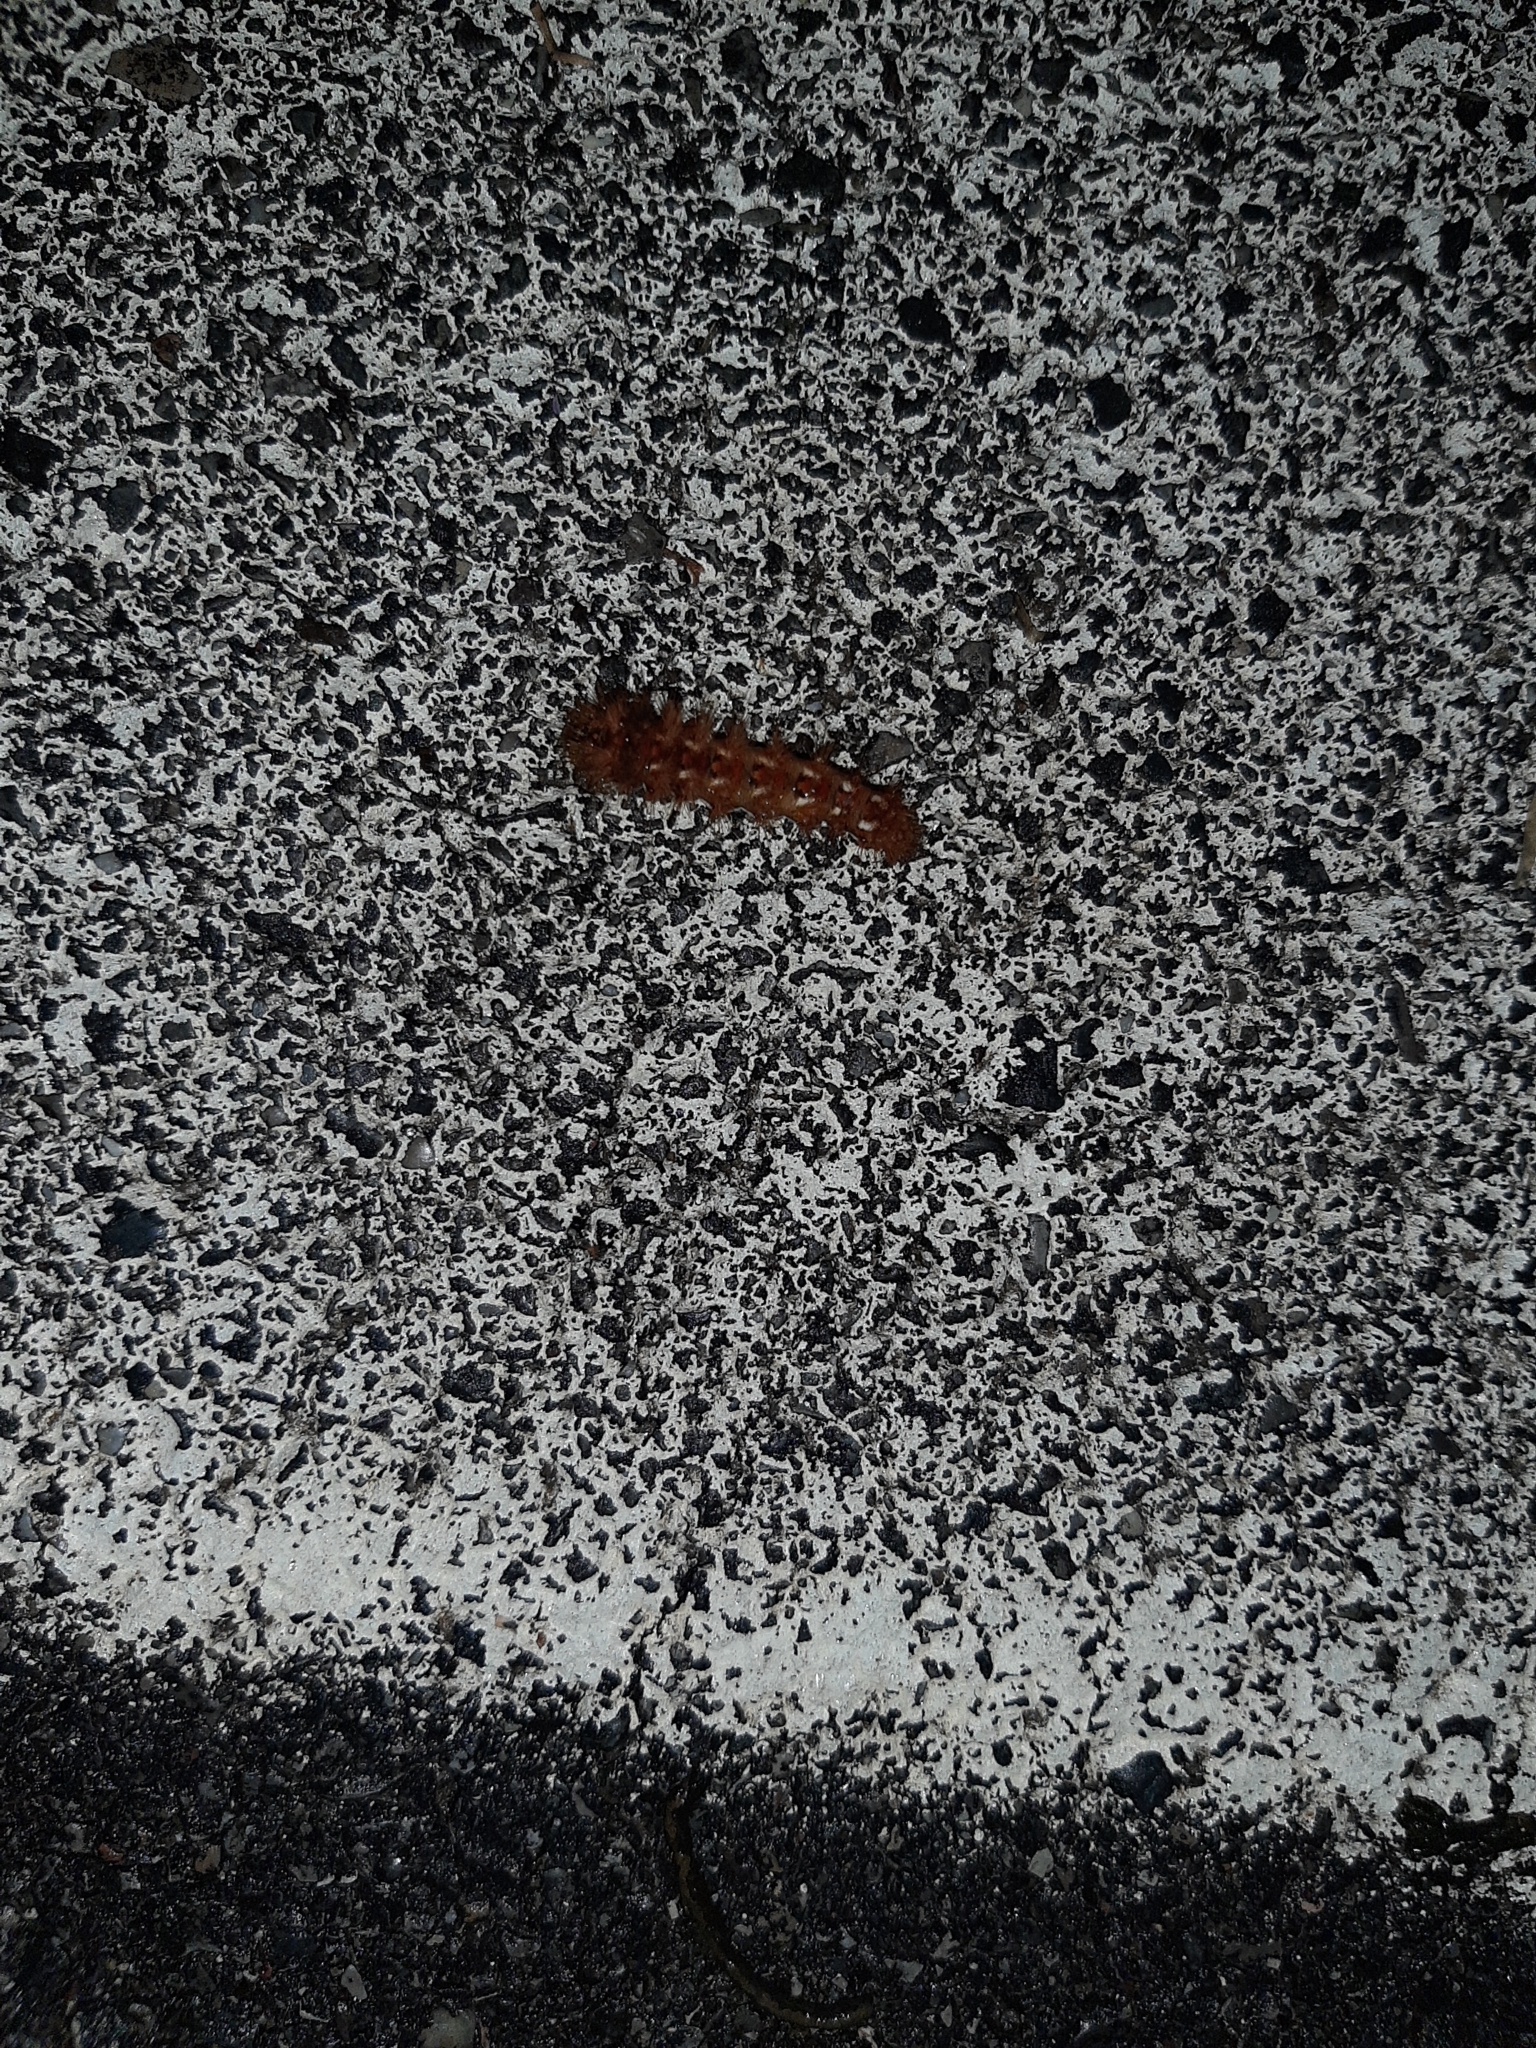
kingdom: Animalia
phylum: Arthropoda
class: Insecta
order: Lepidoptera
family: Noctuidae
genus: Acronicta
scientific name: Acronicta rumicis
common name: Knot grass
